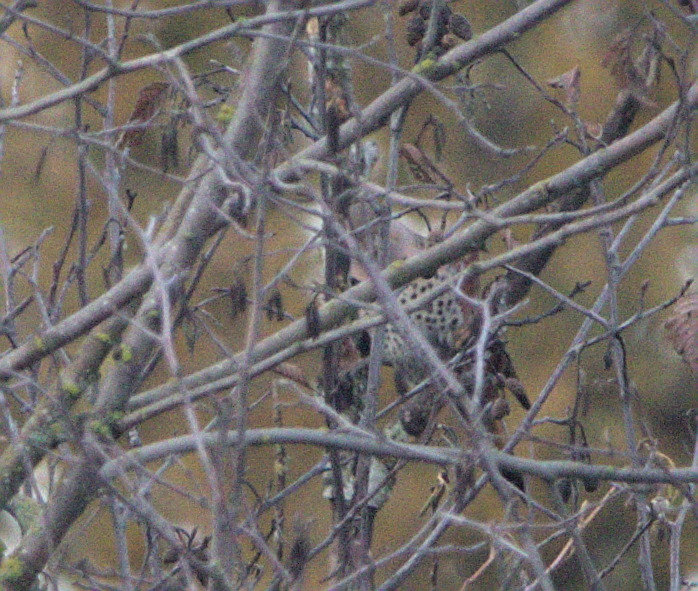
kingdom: Animalia
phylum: Chordata
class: Aves
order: Piciformes
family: Picidae
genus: Colaptes
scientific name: Colaptes auratus
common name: Northern flicker
